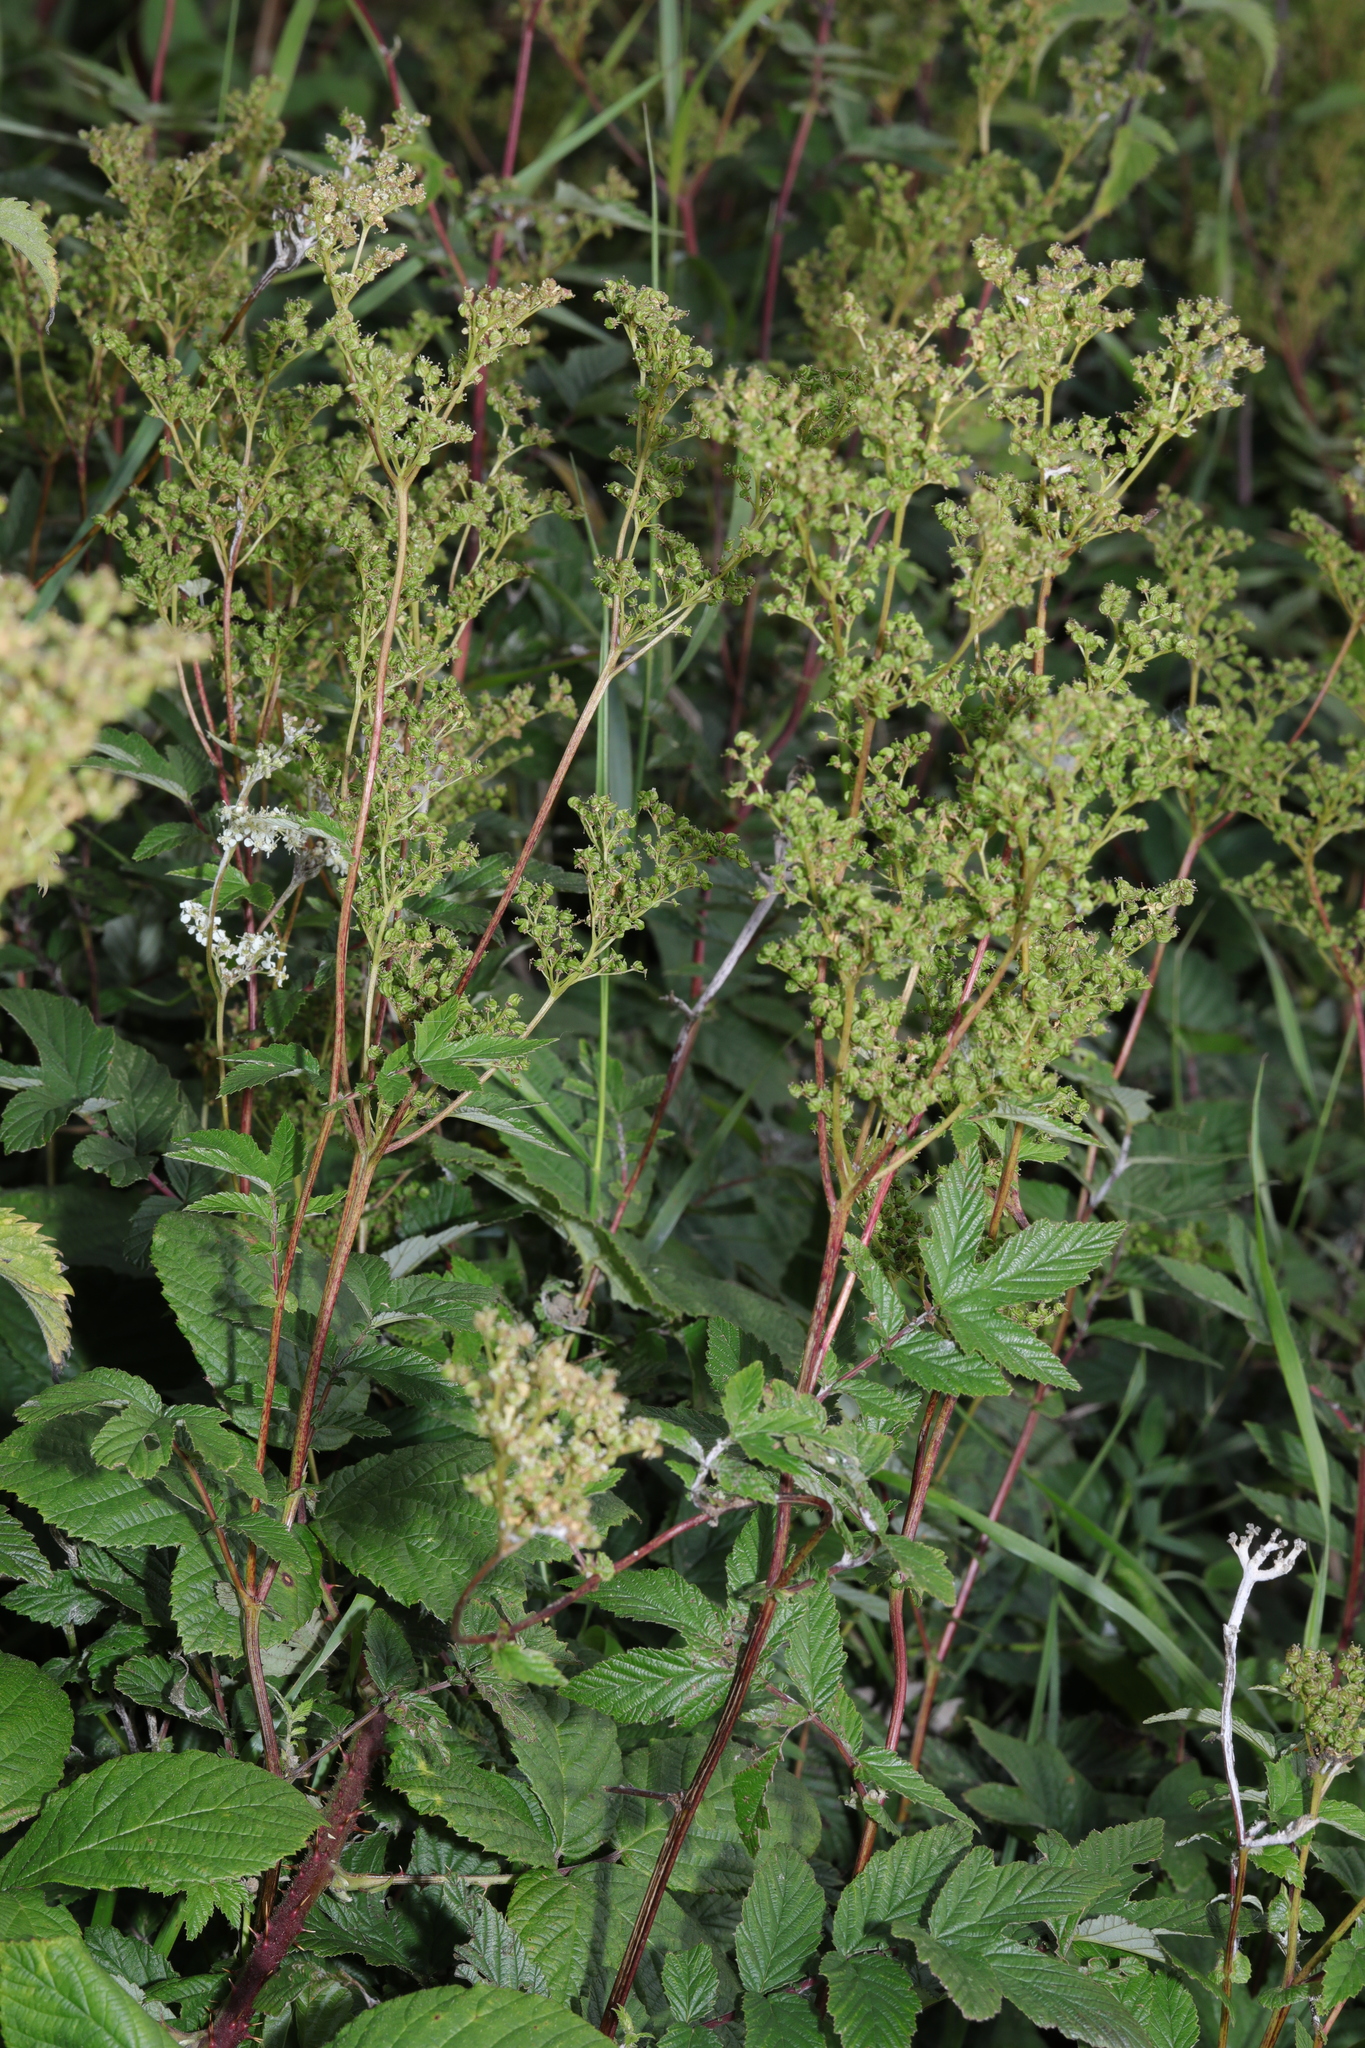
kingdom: Plantae
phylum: Tracheophyta
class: Magnoliopsida
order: Rosales
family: Rosaceae
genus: Filipendula
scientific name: Filipendula ulmaria
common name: Meadowsweet
